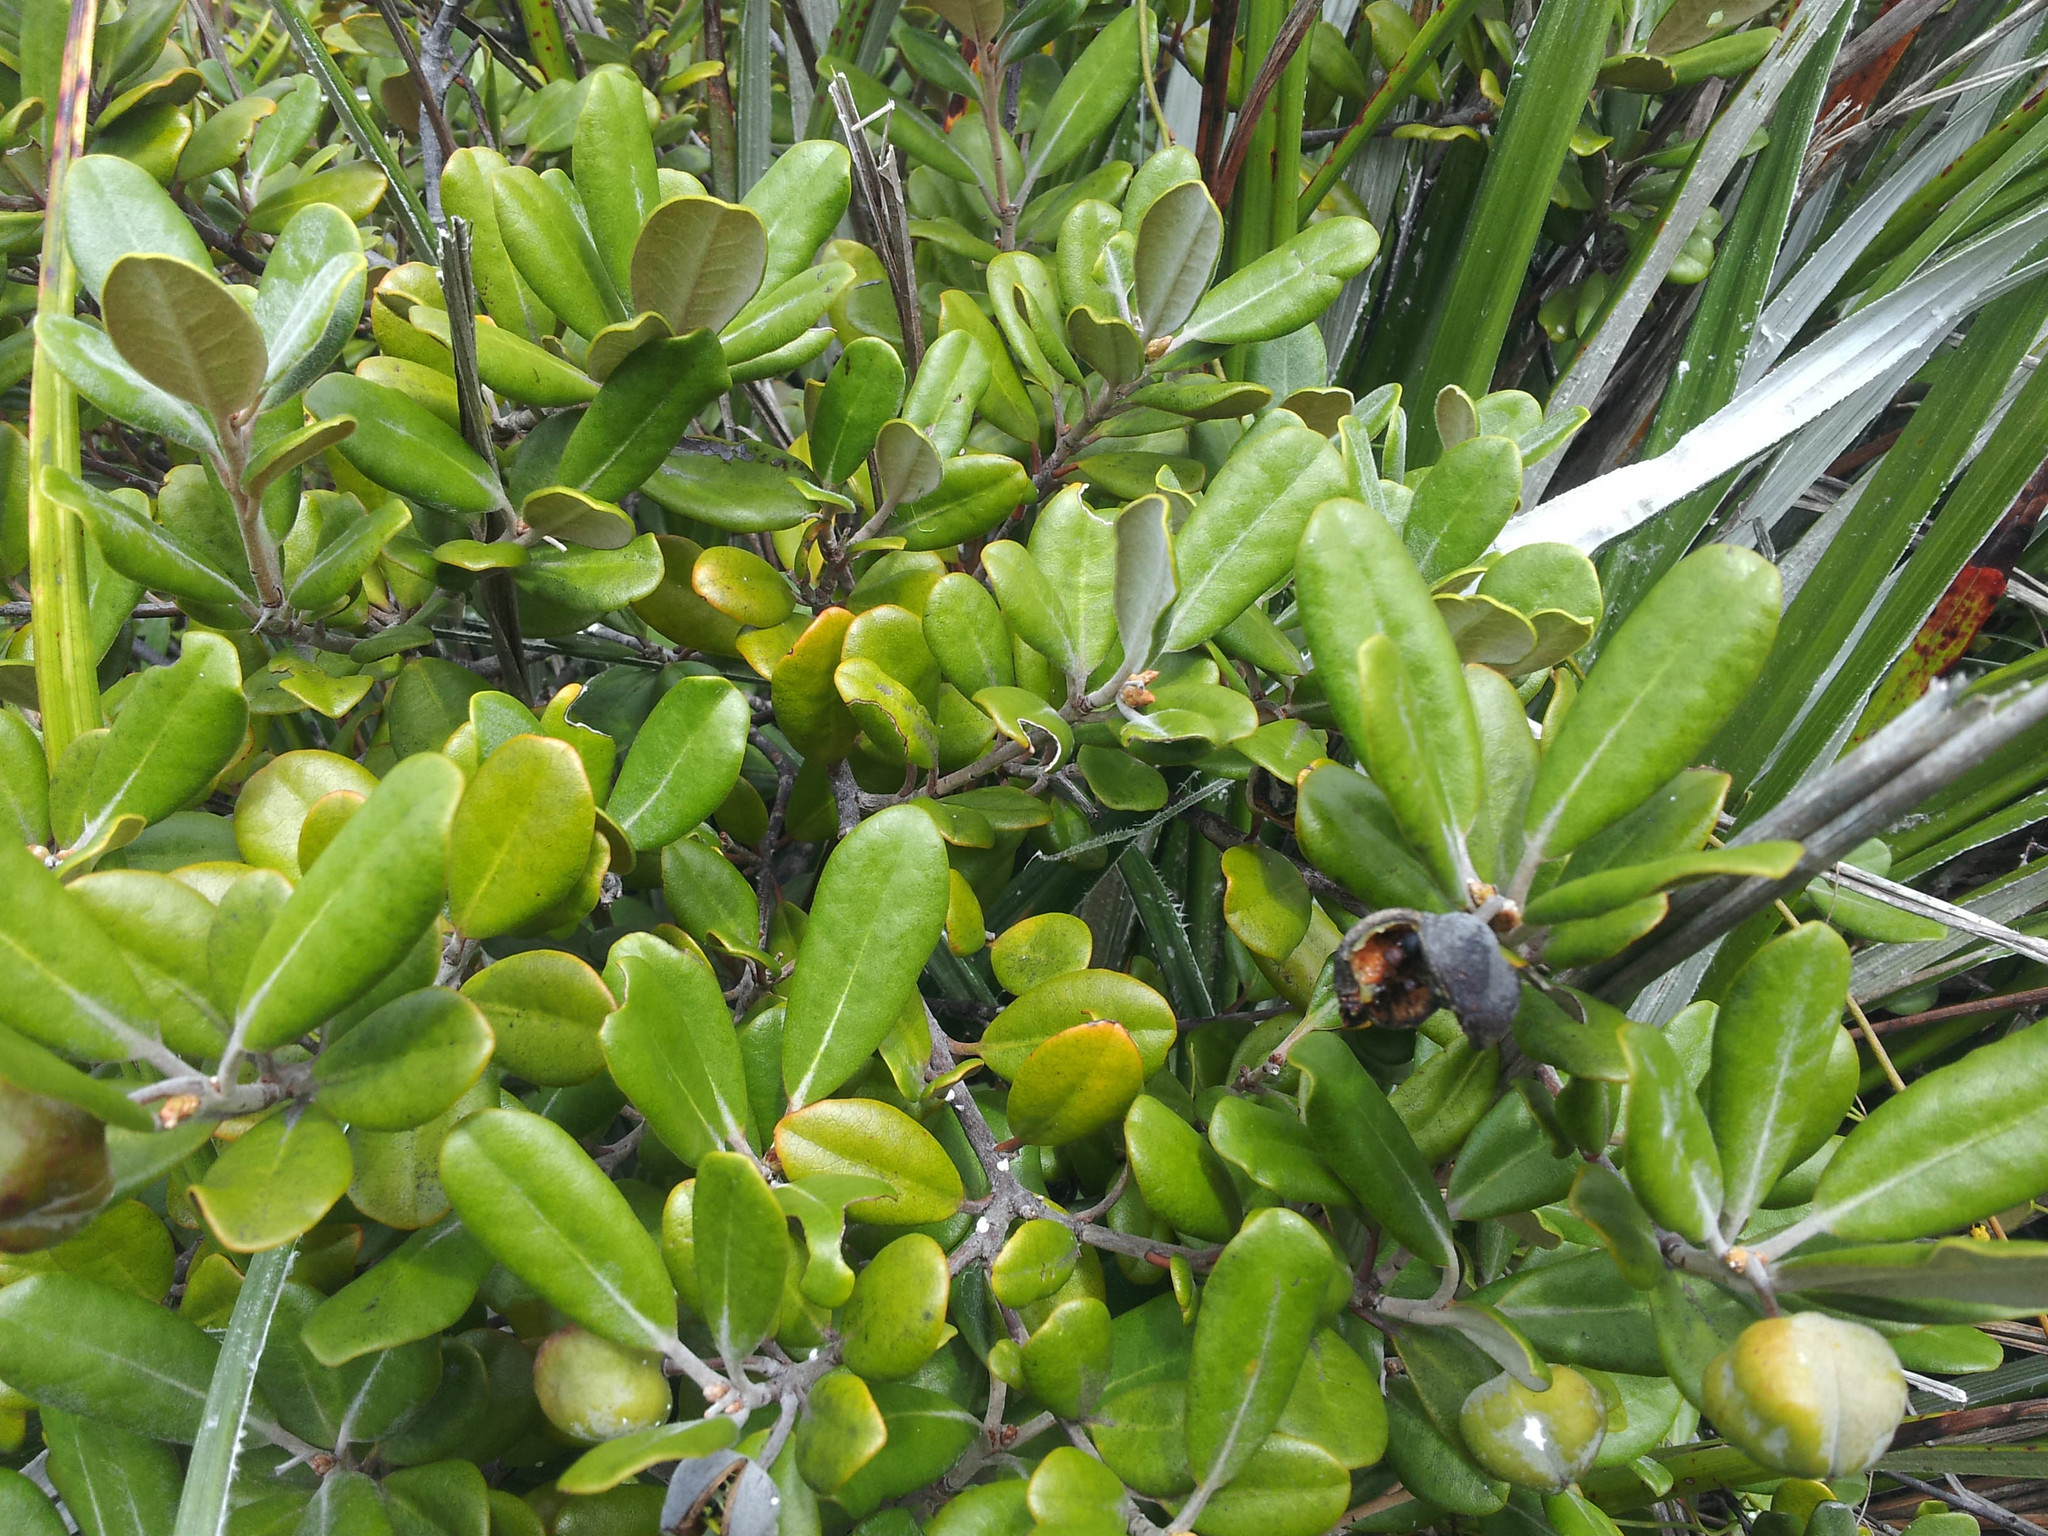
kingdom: Plantae
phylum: Tracheophyta
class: Magnoliopsida
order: Apiales
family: Pittosporaceae
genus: Pittosporum
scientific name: Pittosporum serpentinum
